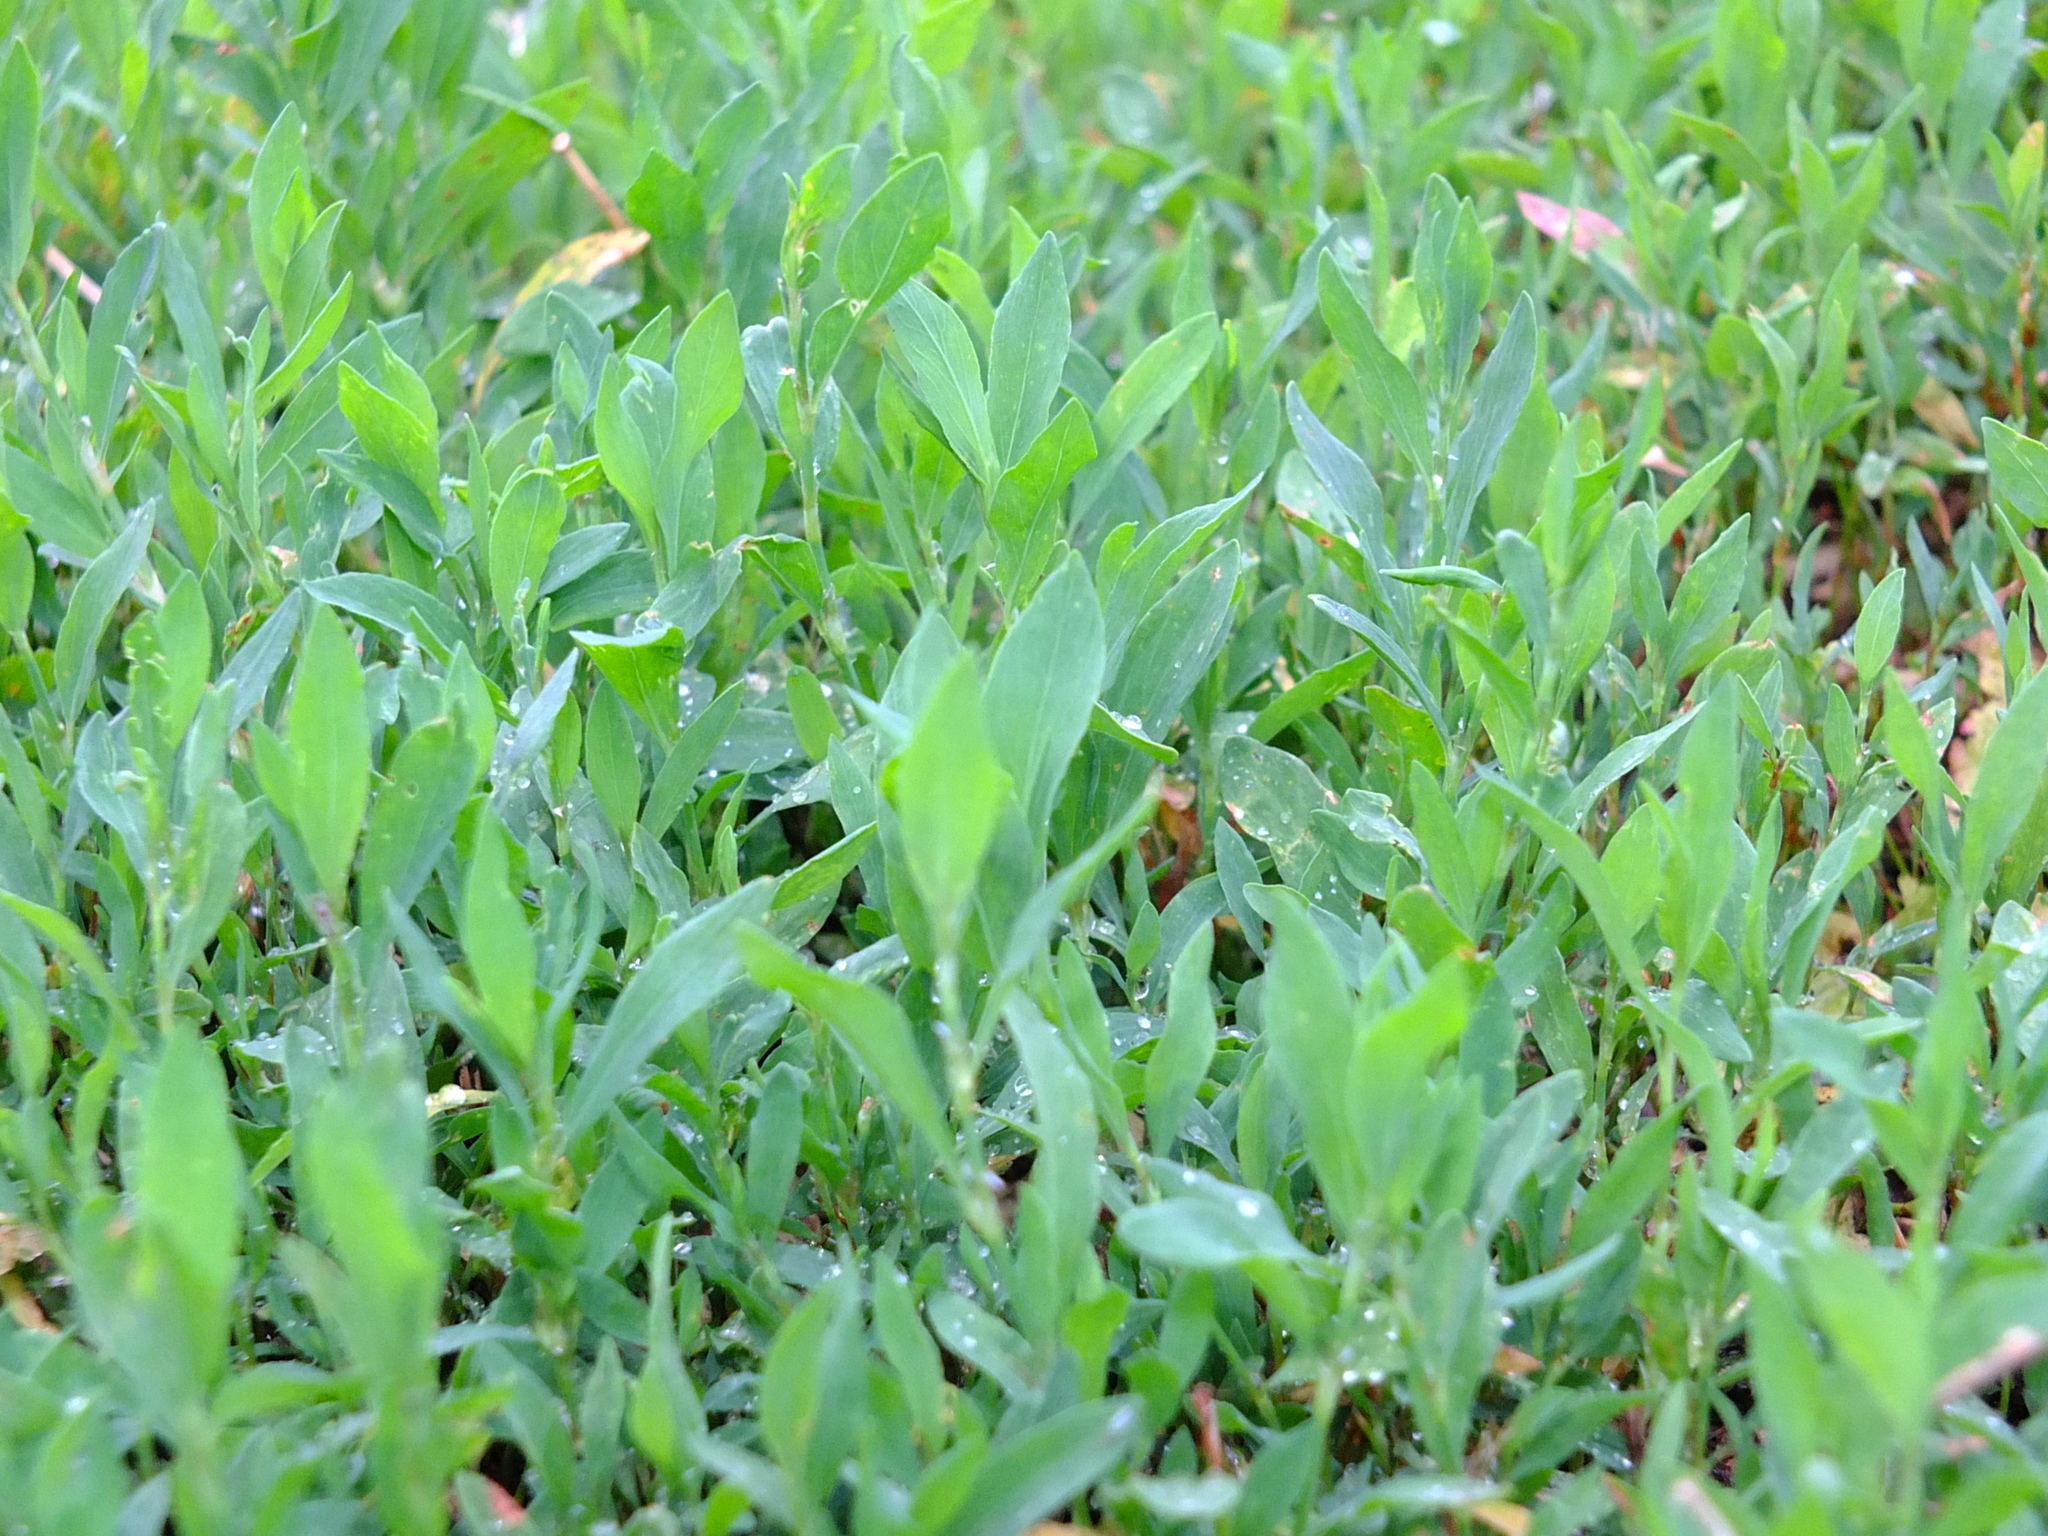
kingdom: Plantae
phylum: Tracheophyta
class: Magnoliopsida
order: Caryophyllales
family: Polygonaceae
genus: Polygonum
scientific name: Polygonum
